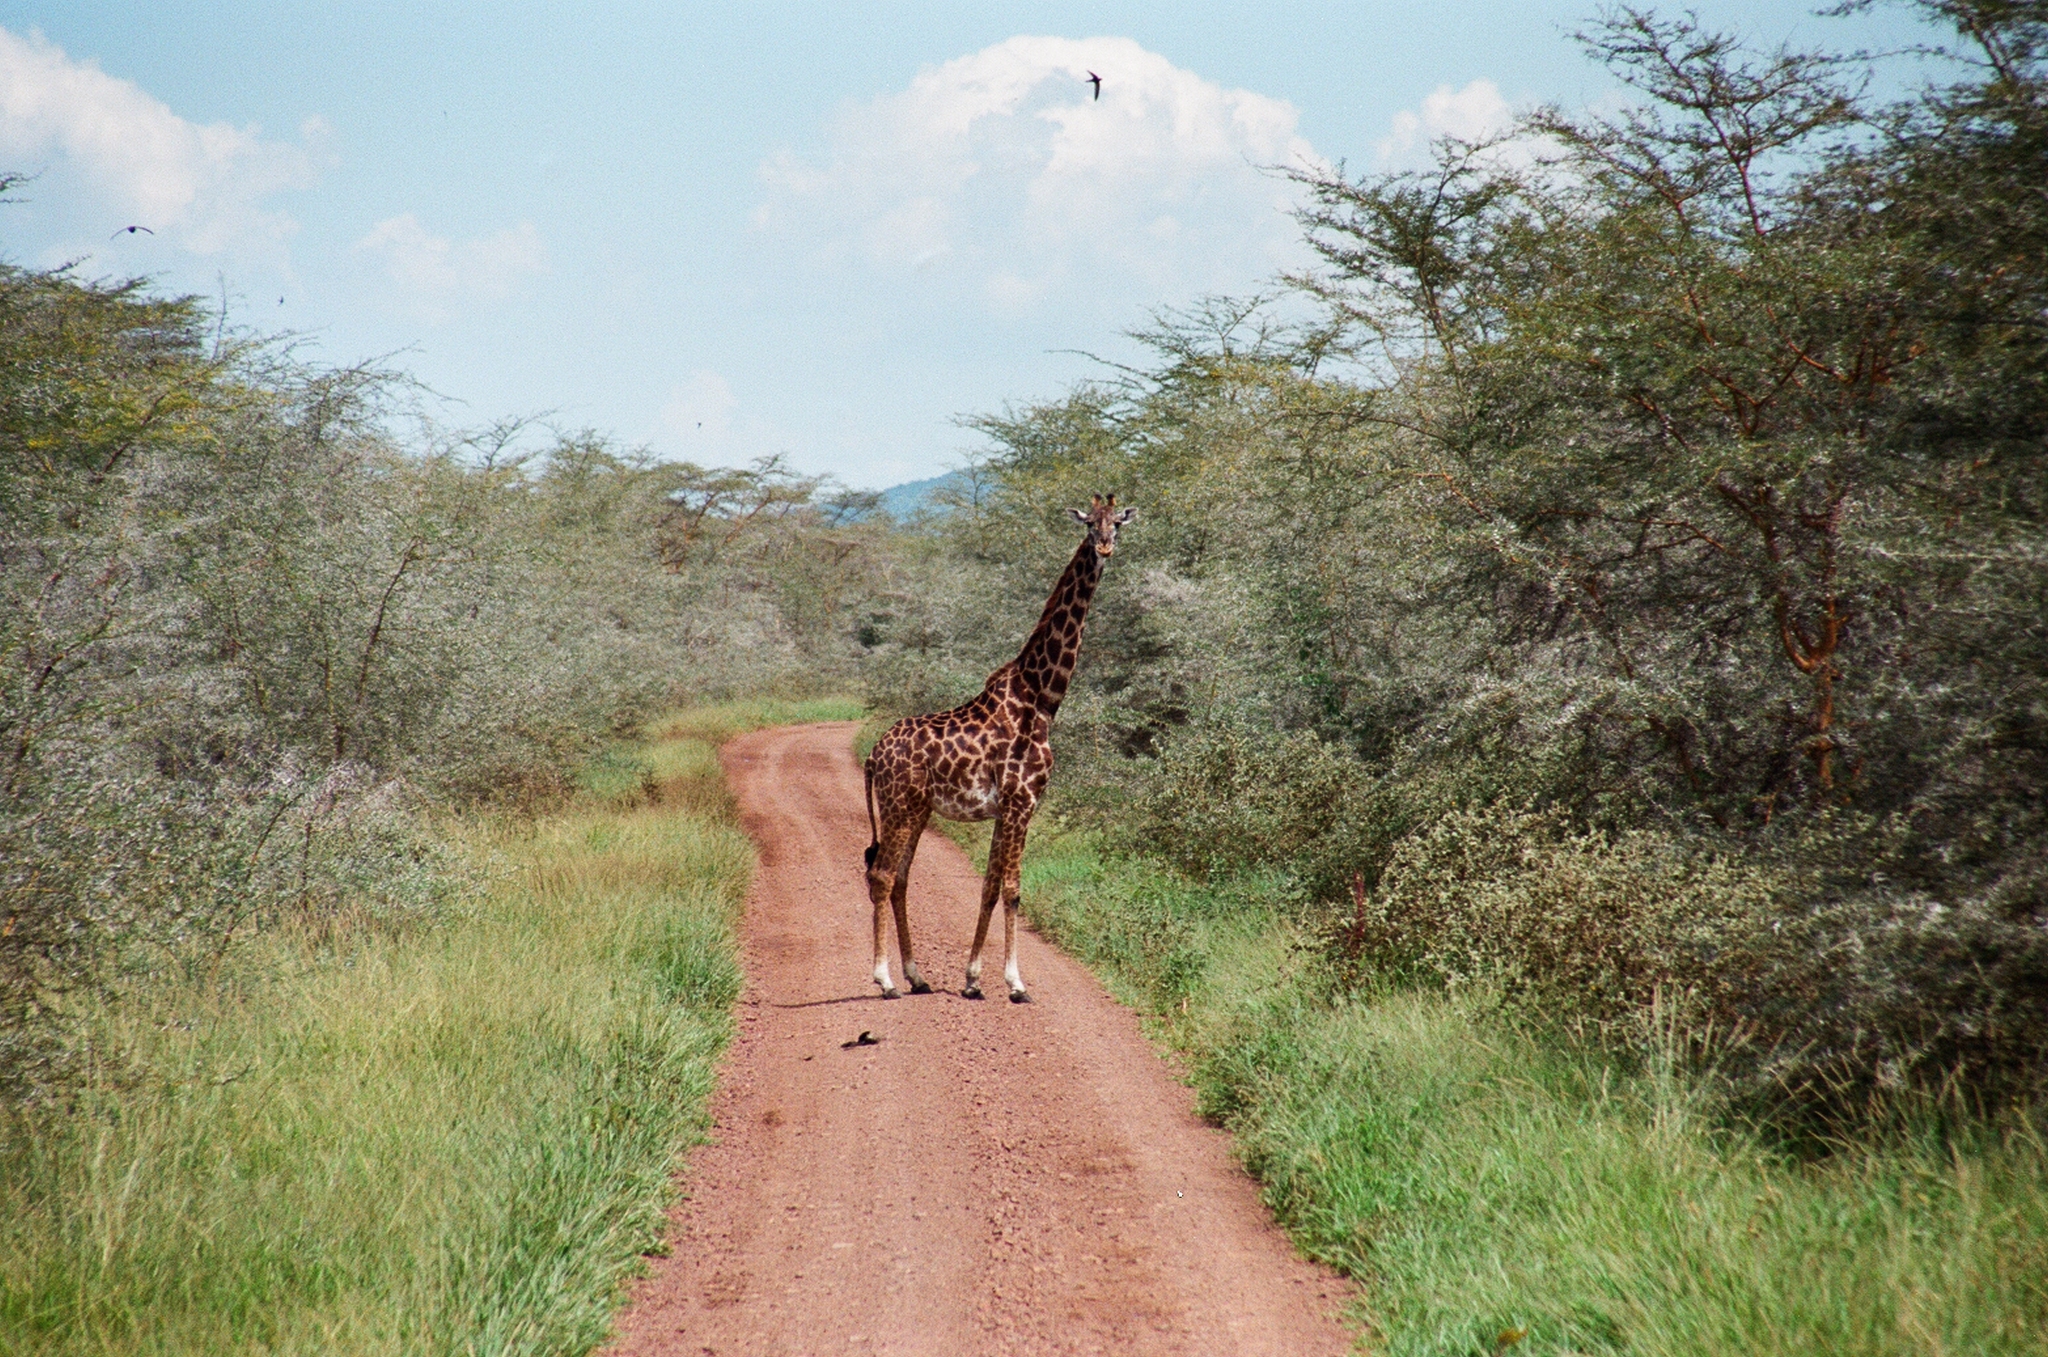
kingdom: Animalia
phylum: Chordata
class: Mammalia
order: Artiodactyla
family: Giraffidae
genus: Giraffa
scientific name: Giraffa tippelskirchi
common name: Masai giraffe
